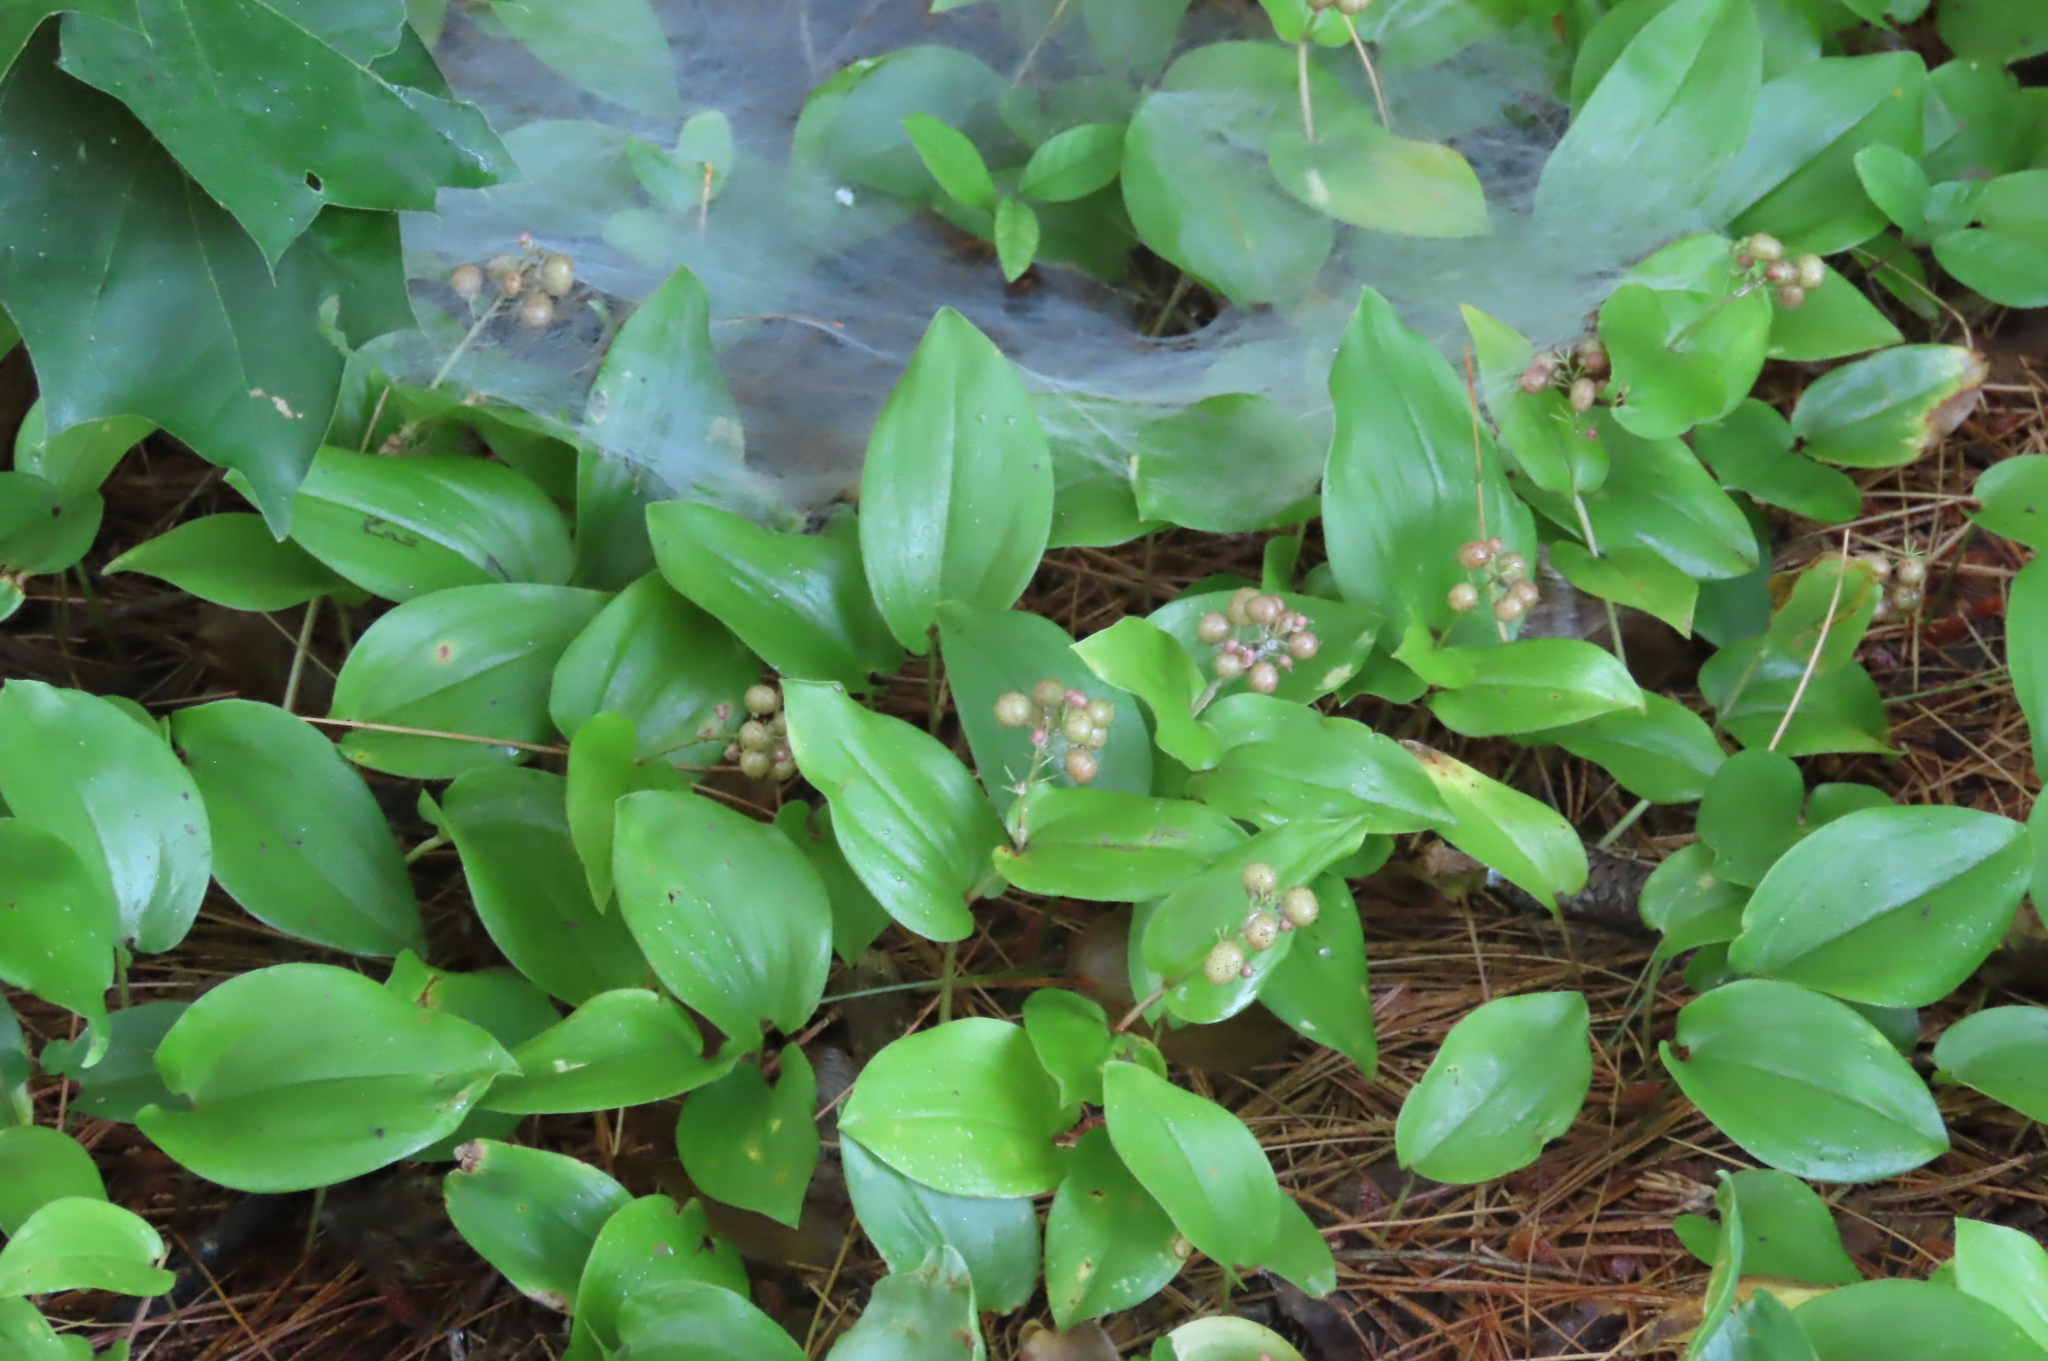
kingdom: Plantae
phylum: Tracheophyta
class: Liliopsida
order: Asparagales
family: Asparagaceae
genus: Maianthemum
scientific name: Maianthemum canadense
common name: False lily-of-the-valley
